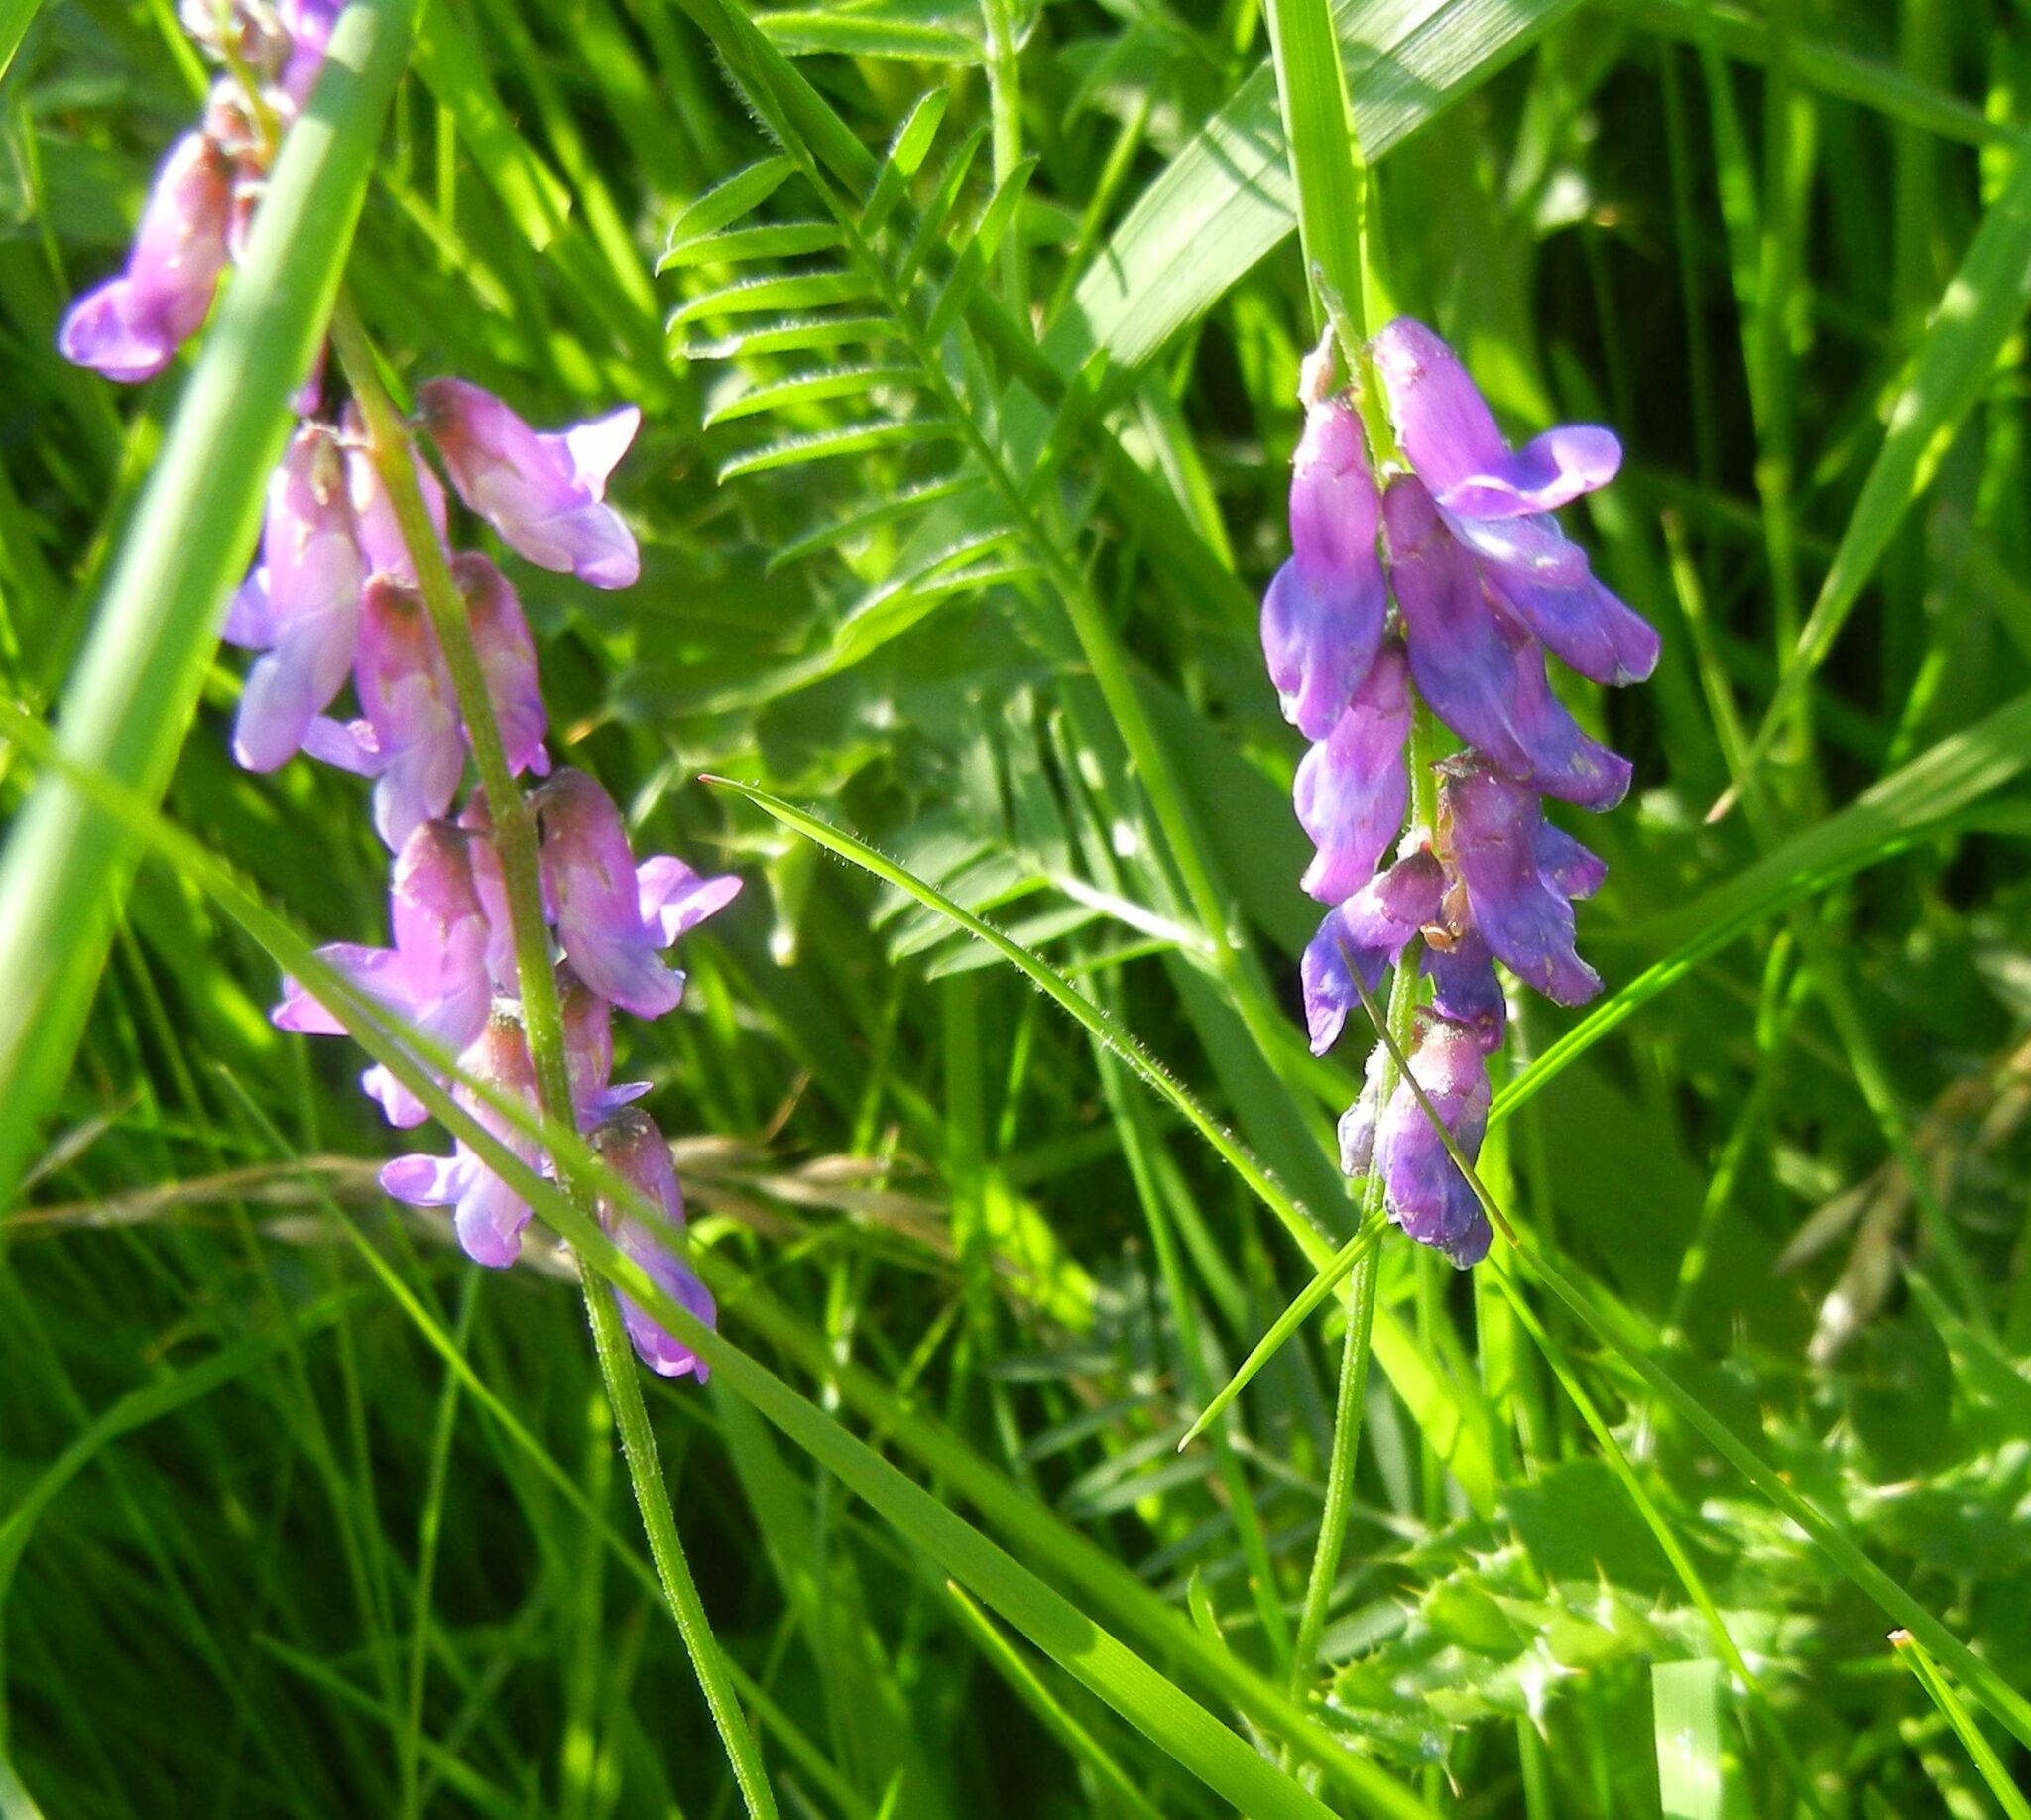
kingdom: Plantae
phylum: Tracheophyta
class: Magnoliopsida
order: Fabales
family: Fabaceae
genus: Vicia
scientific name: Vicia cracca
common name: Bird vetch
